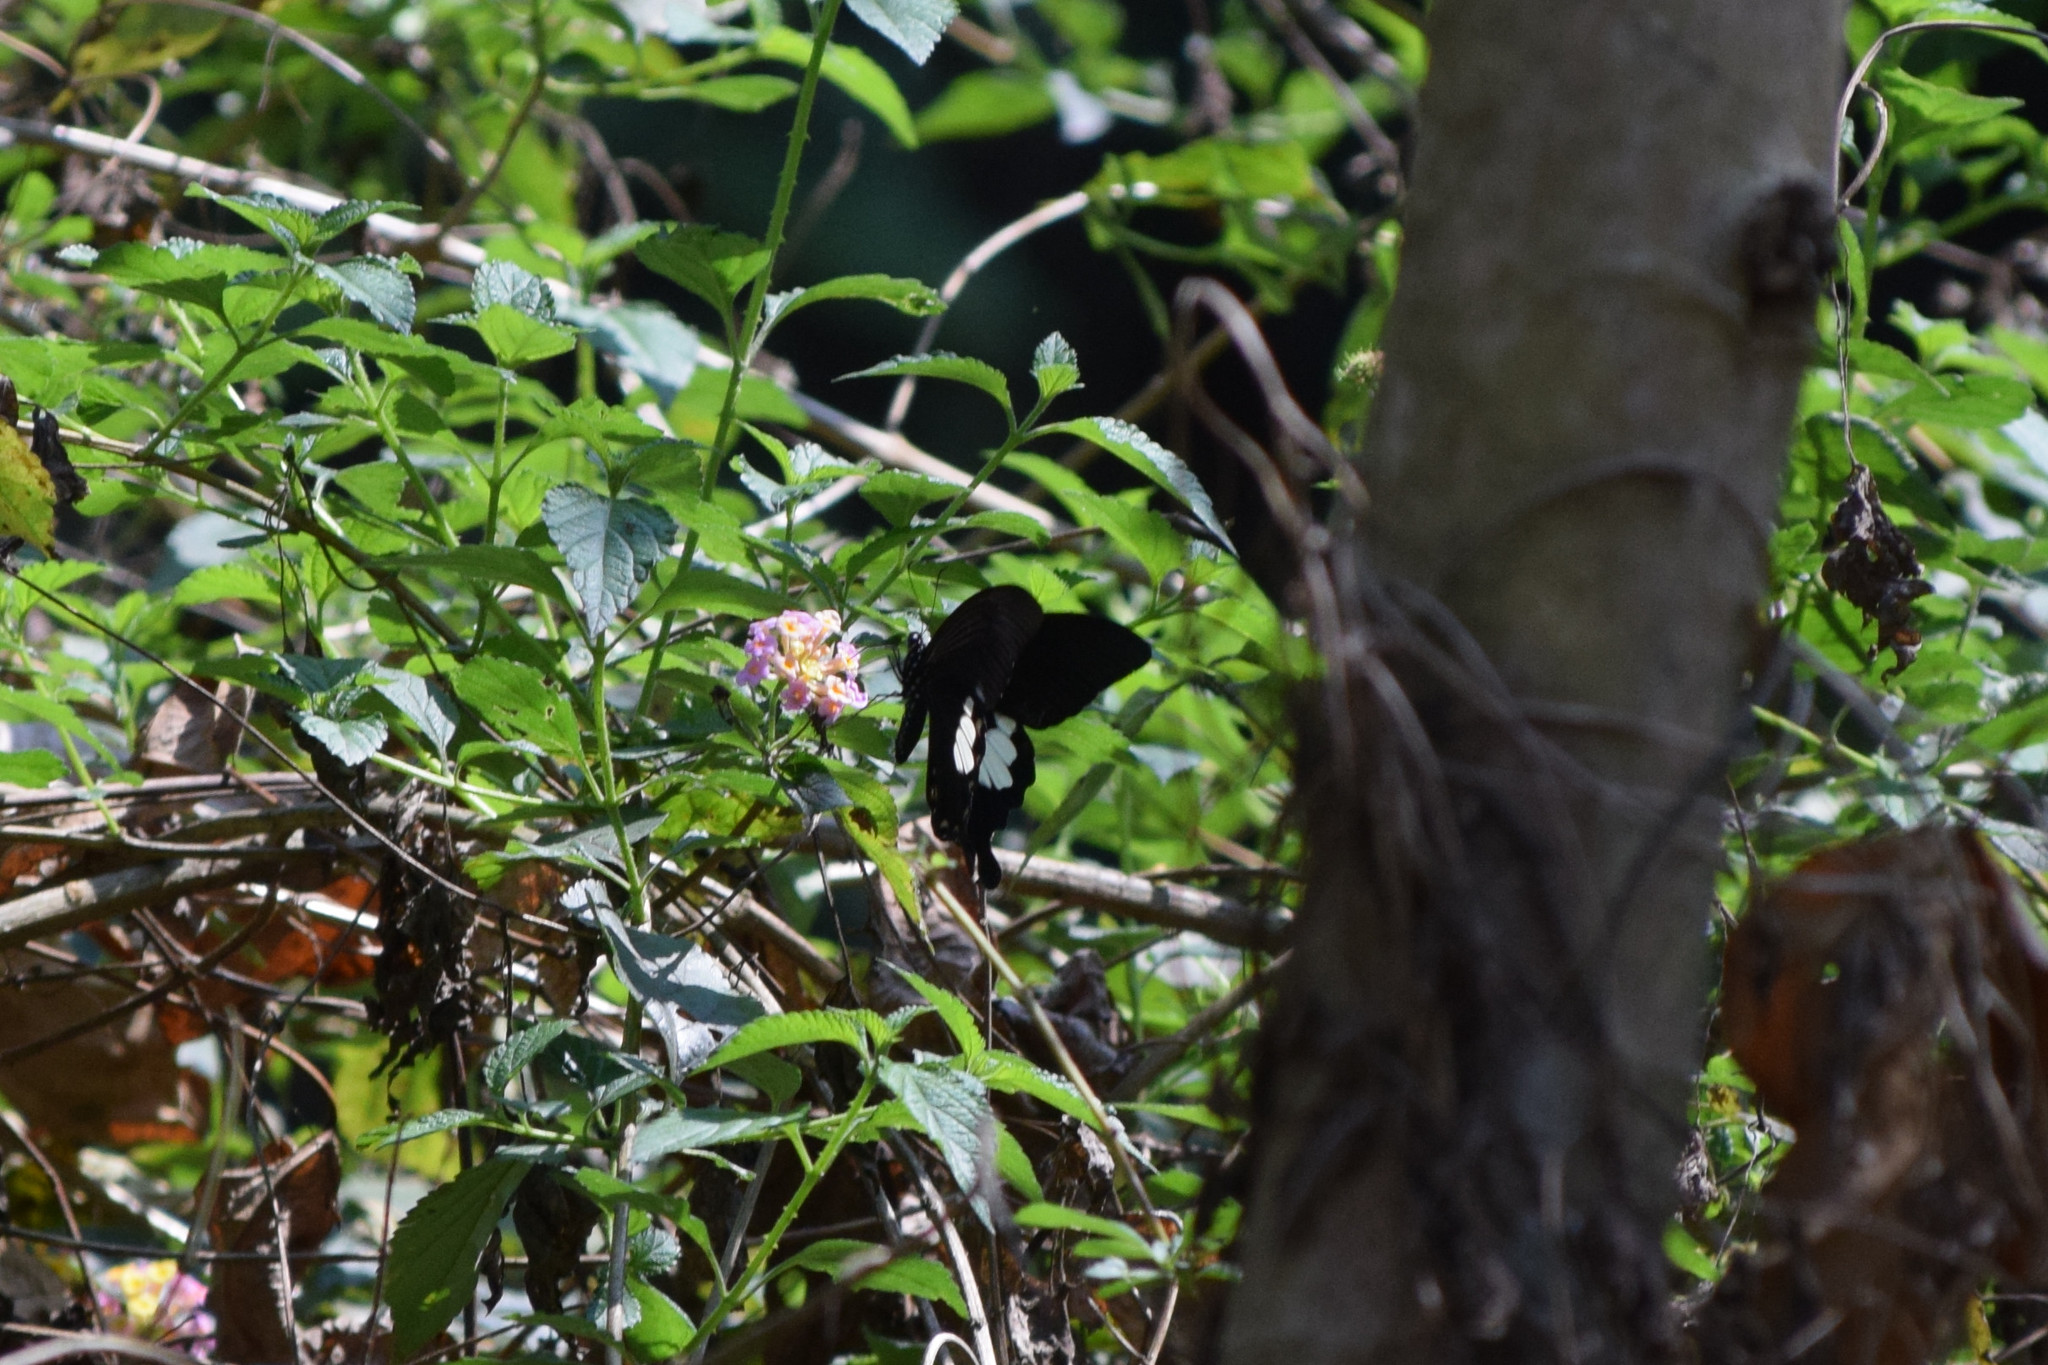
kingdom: Animalia
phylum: Arthropoda
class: Insecta
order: Lepidoptera
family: Papilionidae
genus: Papilio
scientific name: Papilio nephelus
